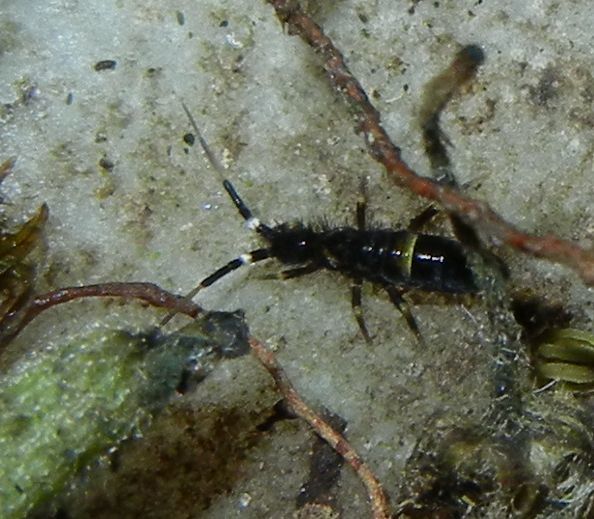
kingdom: Animalia
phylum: Arthropoda
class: Collembola
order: Entomobryomorpha
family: Orchesellidae
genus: Orchesella
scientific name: Orchesella cincta
